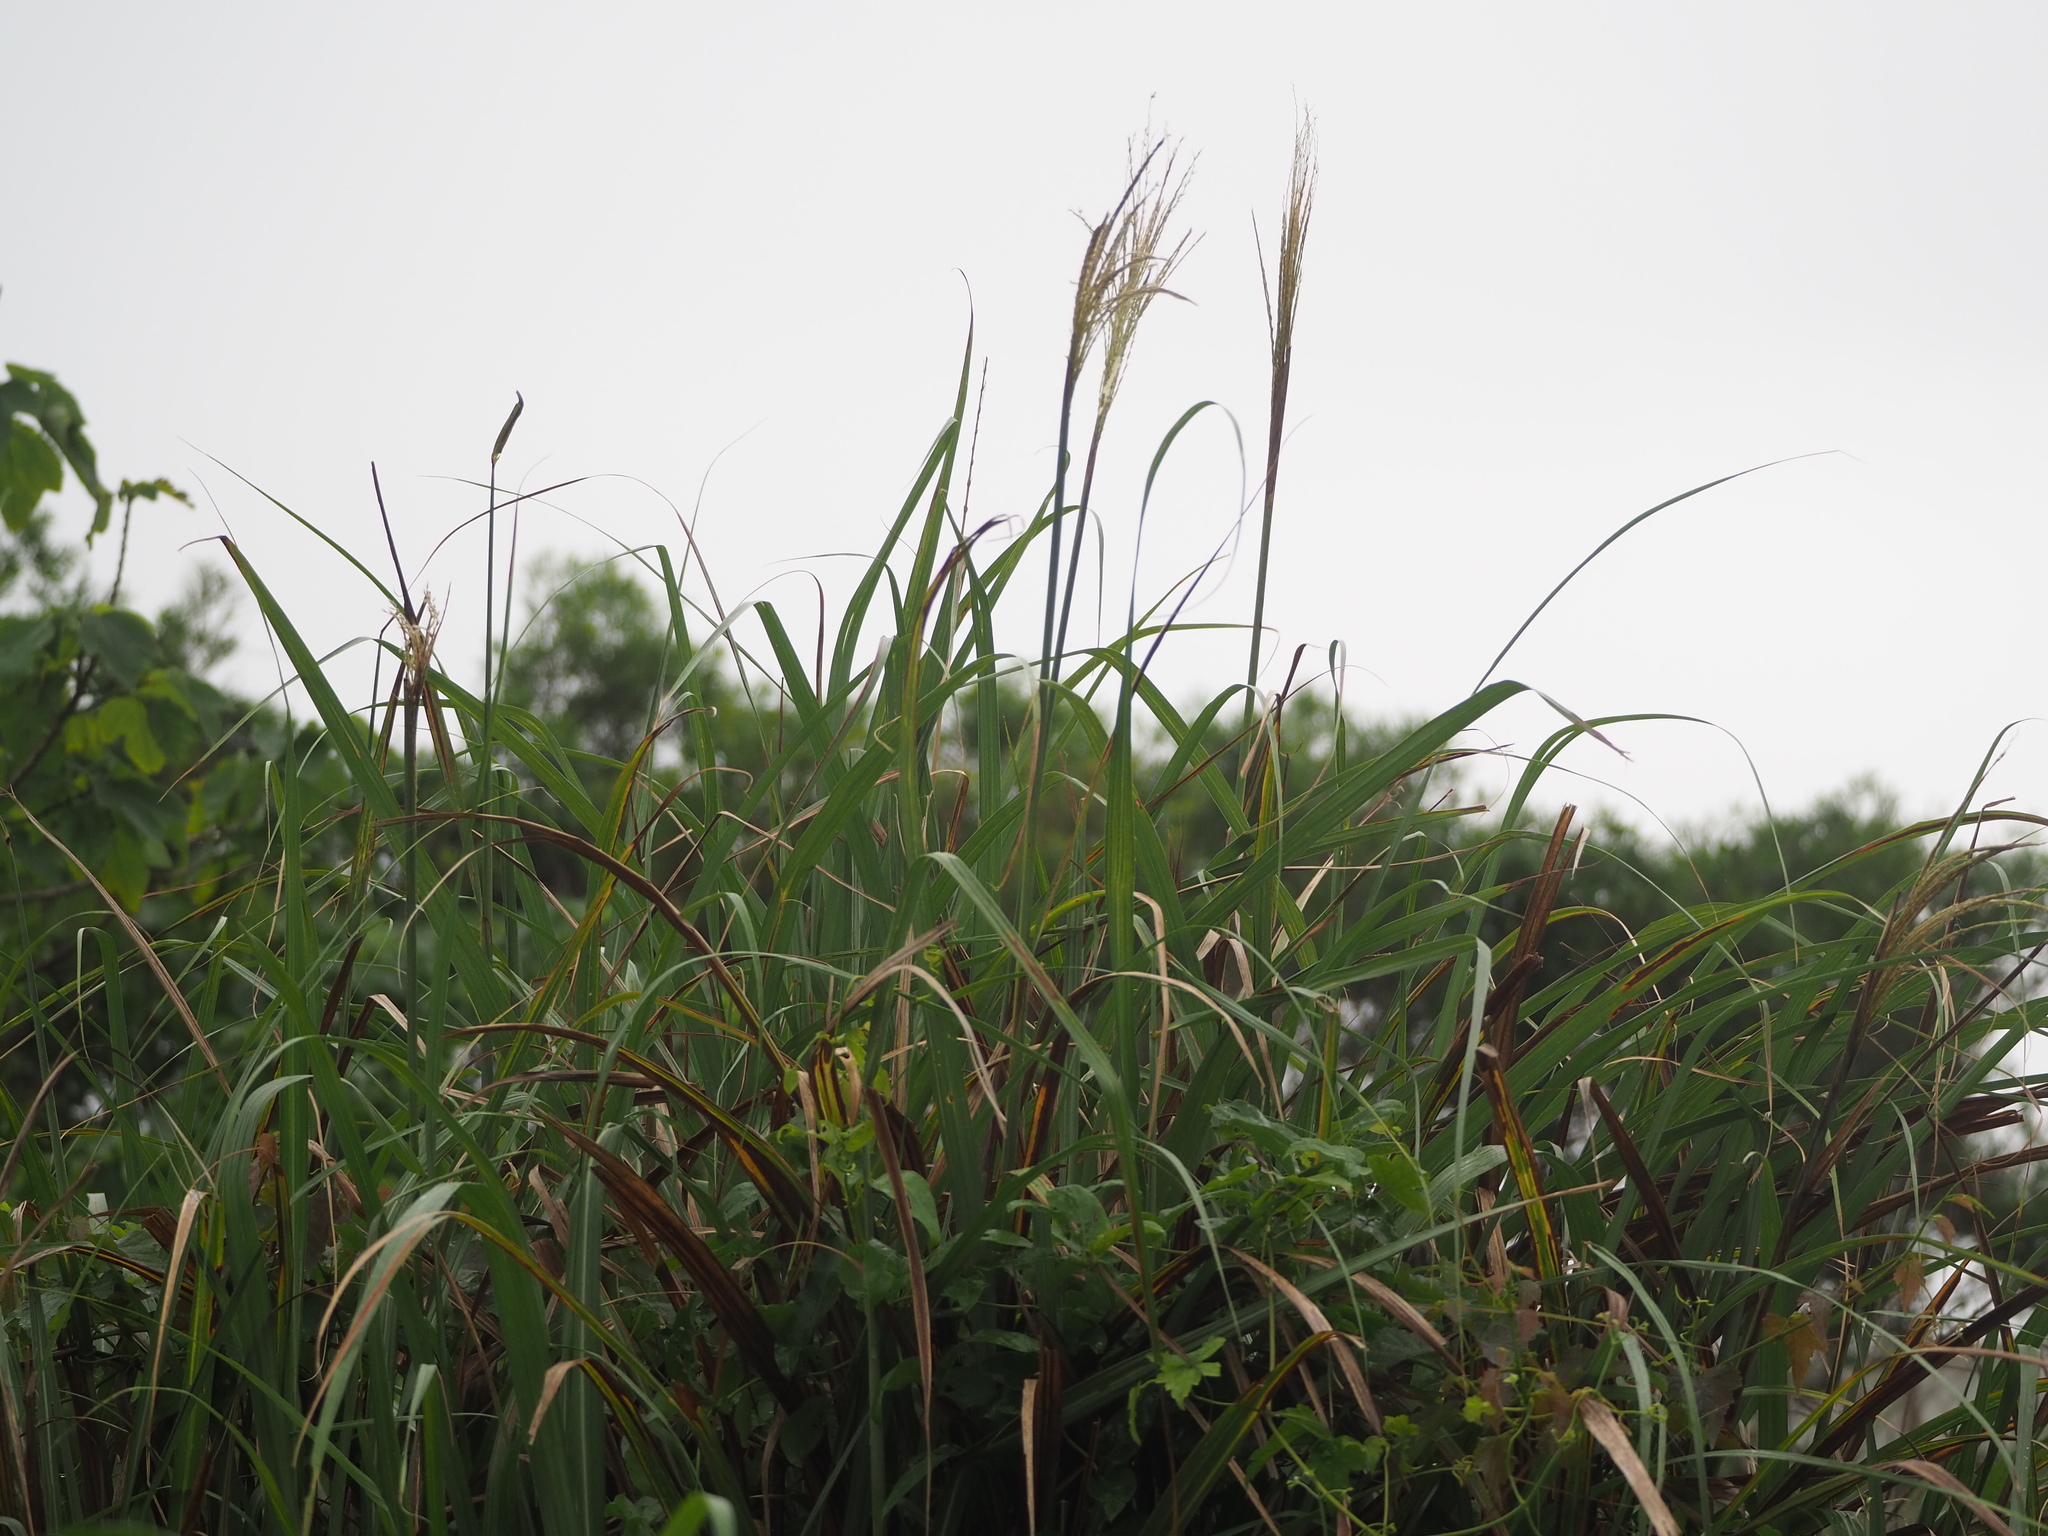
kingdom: Plantae
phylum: Tracheophyta
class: Liliopsida
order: Poales
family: Poaceae
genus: Miscanthus
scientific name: Miscanthus sinensis
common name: Chinese silvergrass
